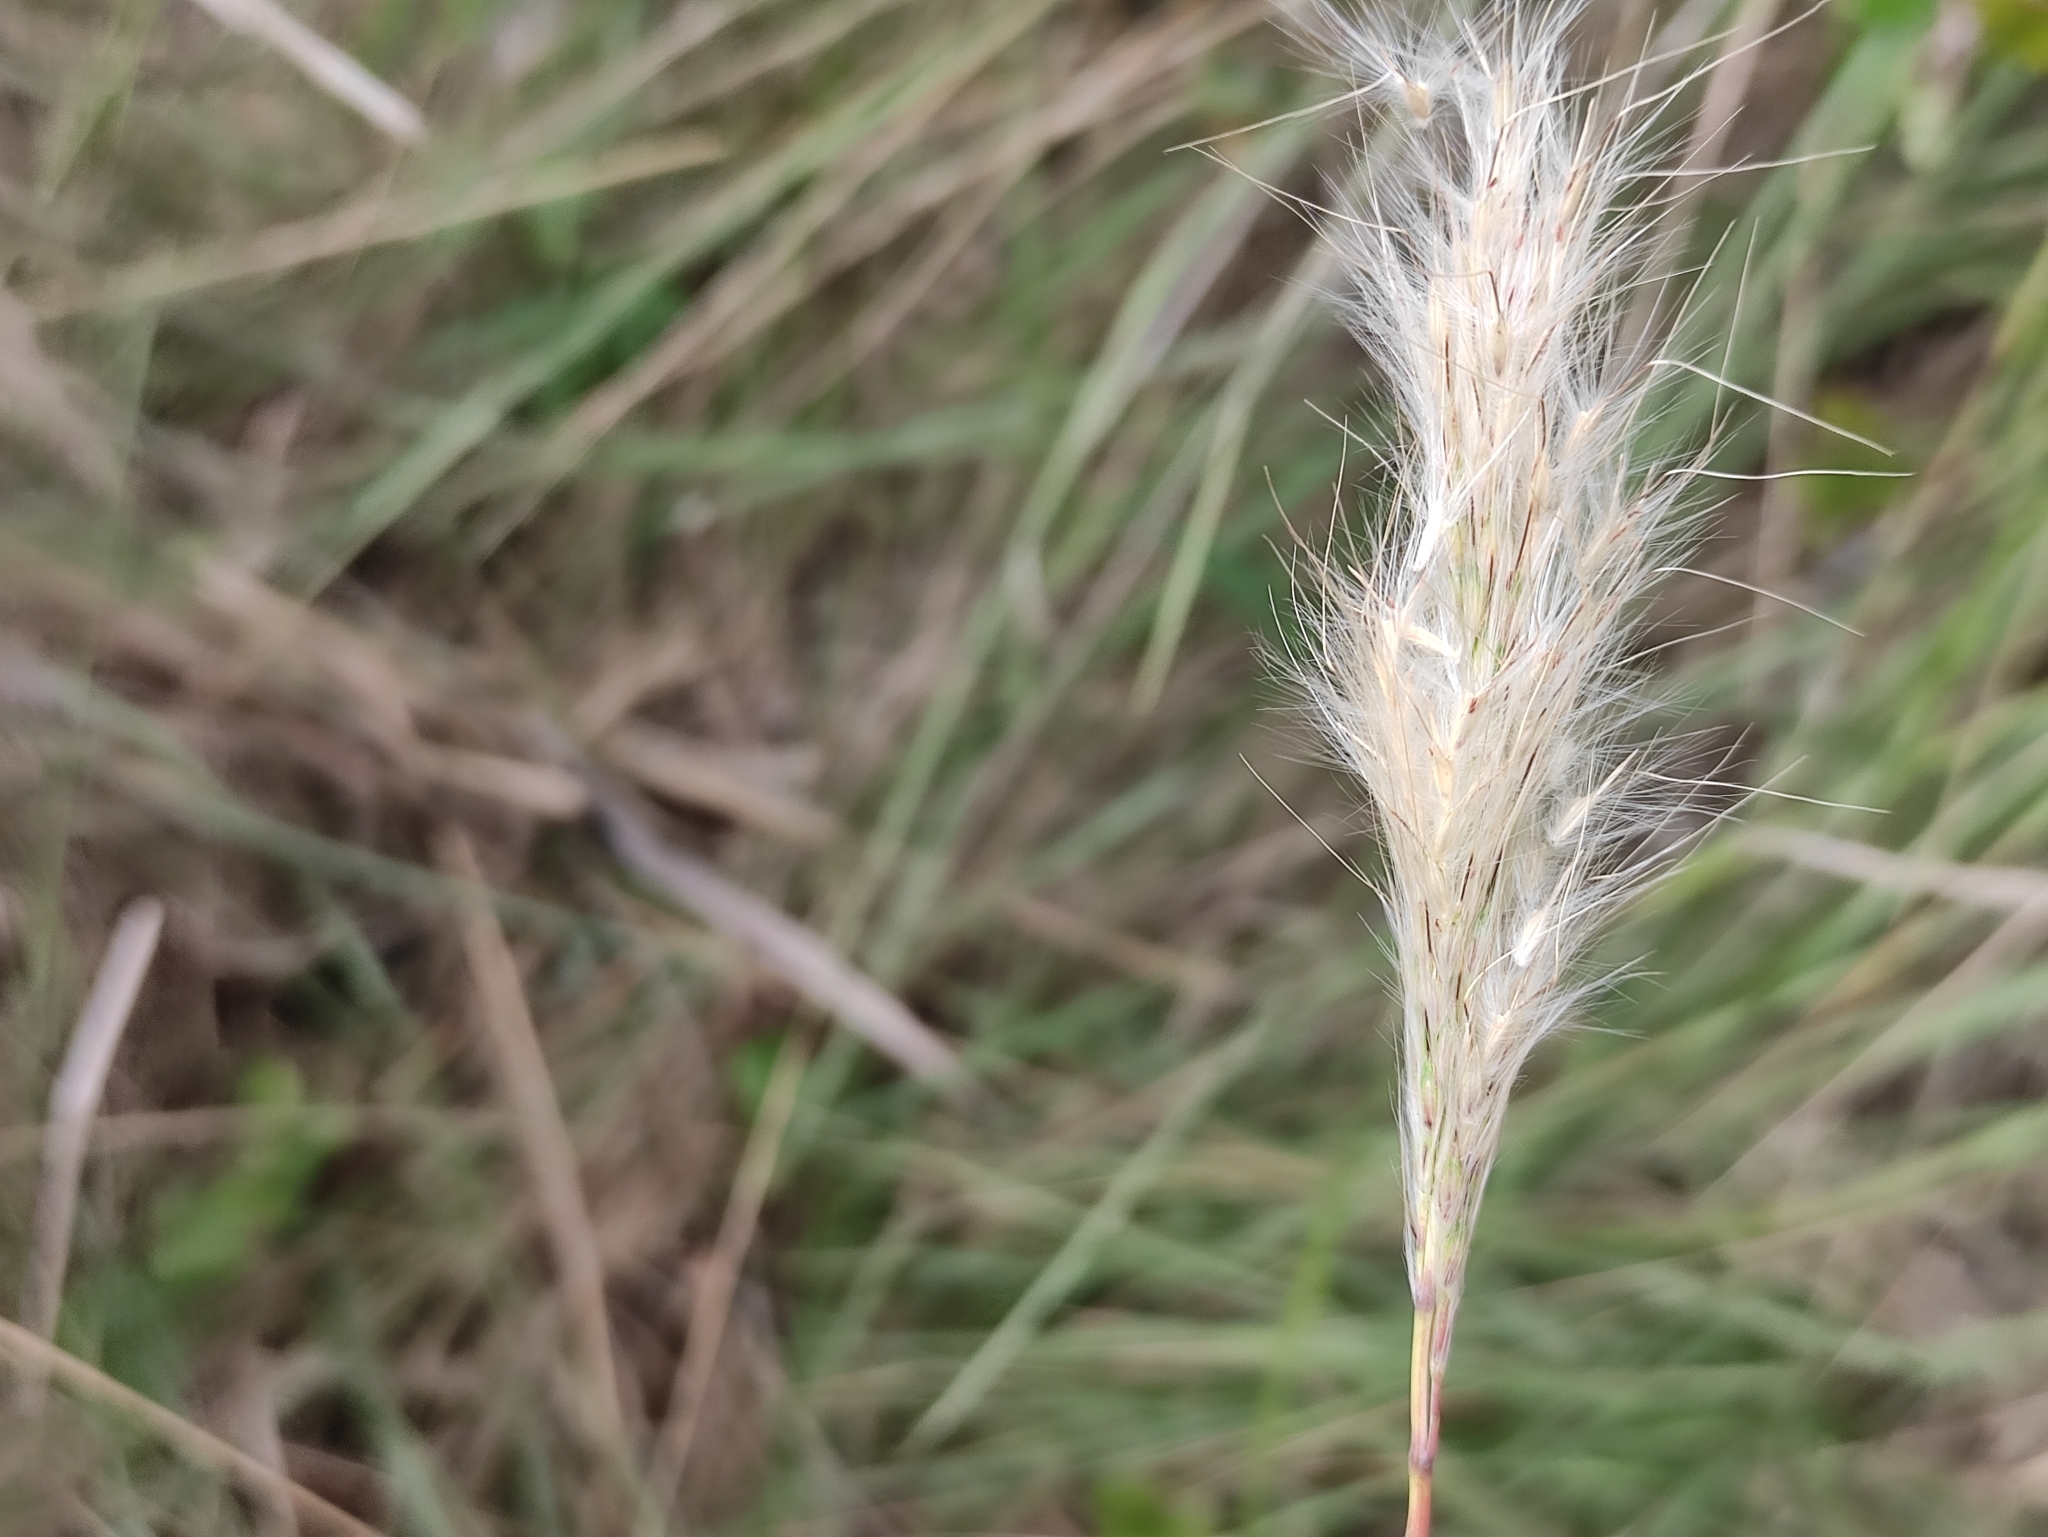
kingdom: Plantae
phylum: Tracheophyta
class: Liliopsida
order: Poales
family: Poaceae
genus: Bothriochloa
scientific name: Bothriochloa barbinodis
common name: Cane bluestem
